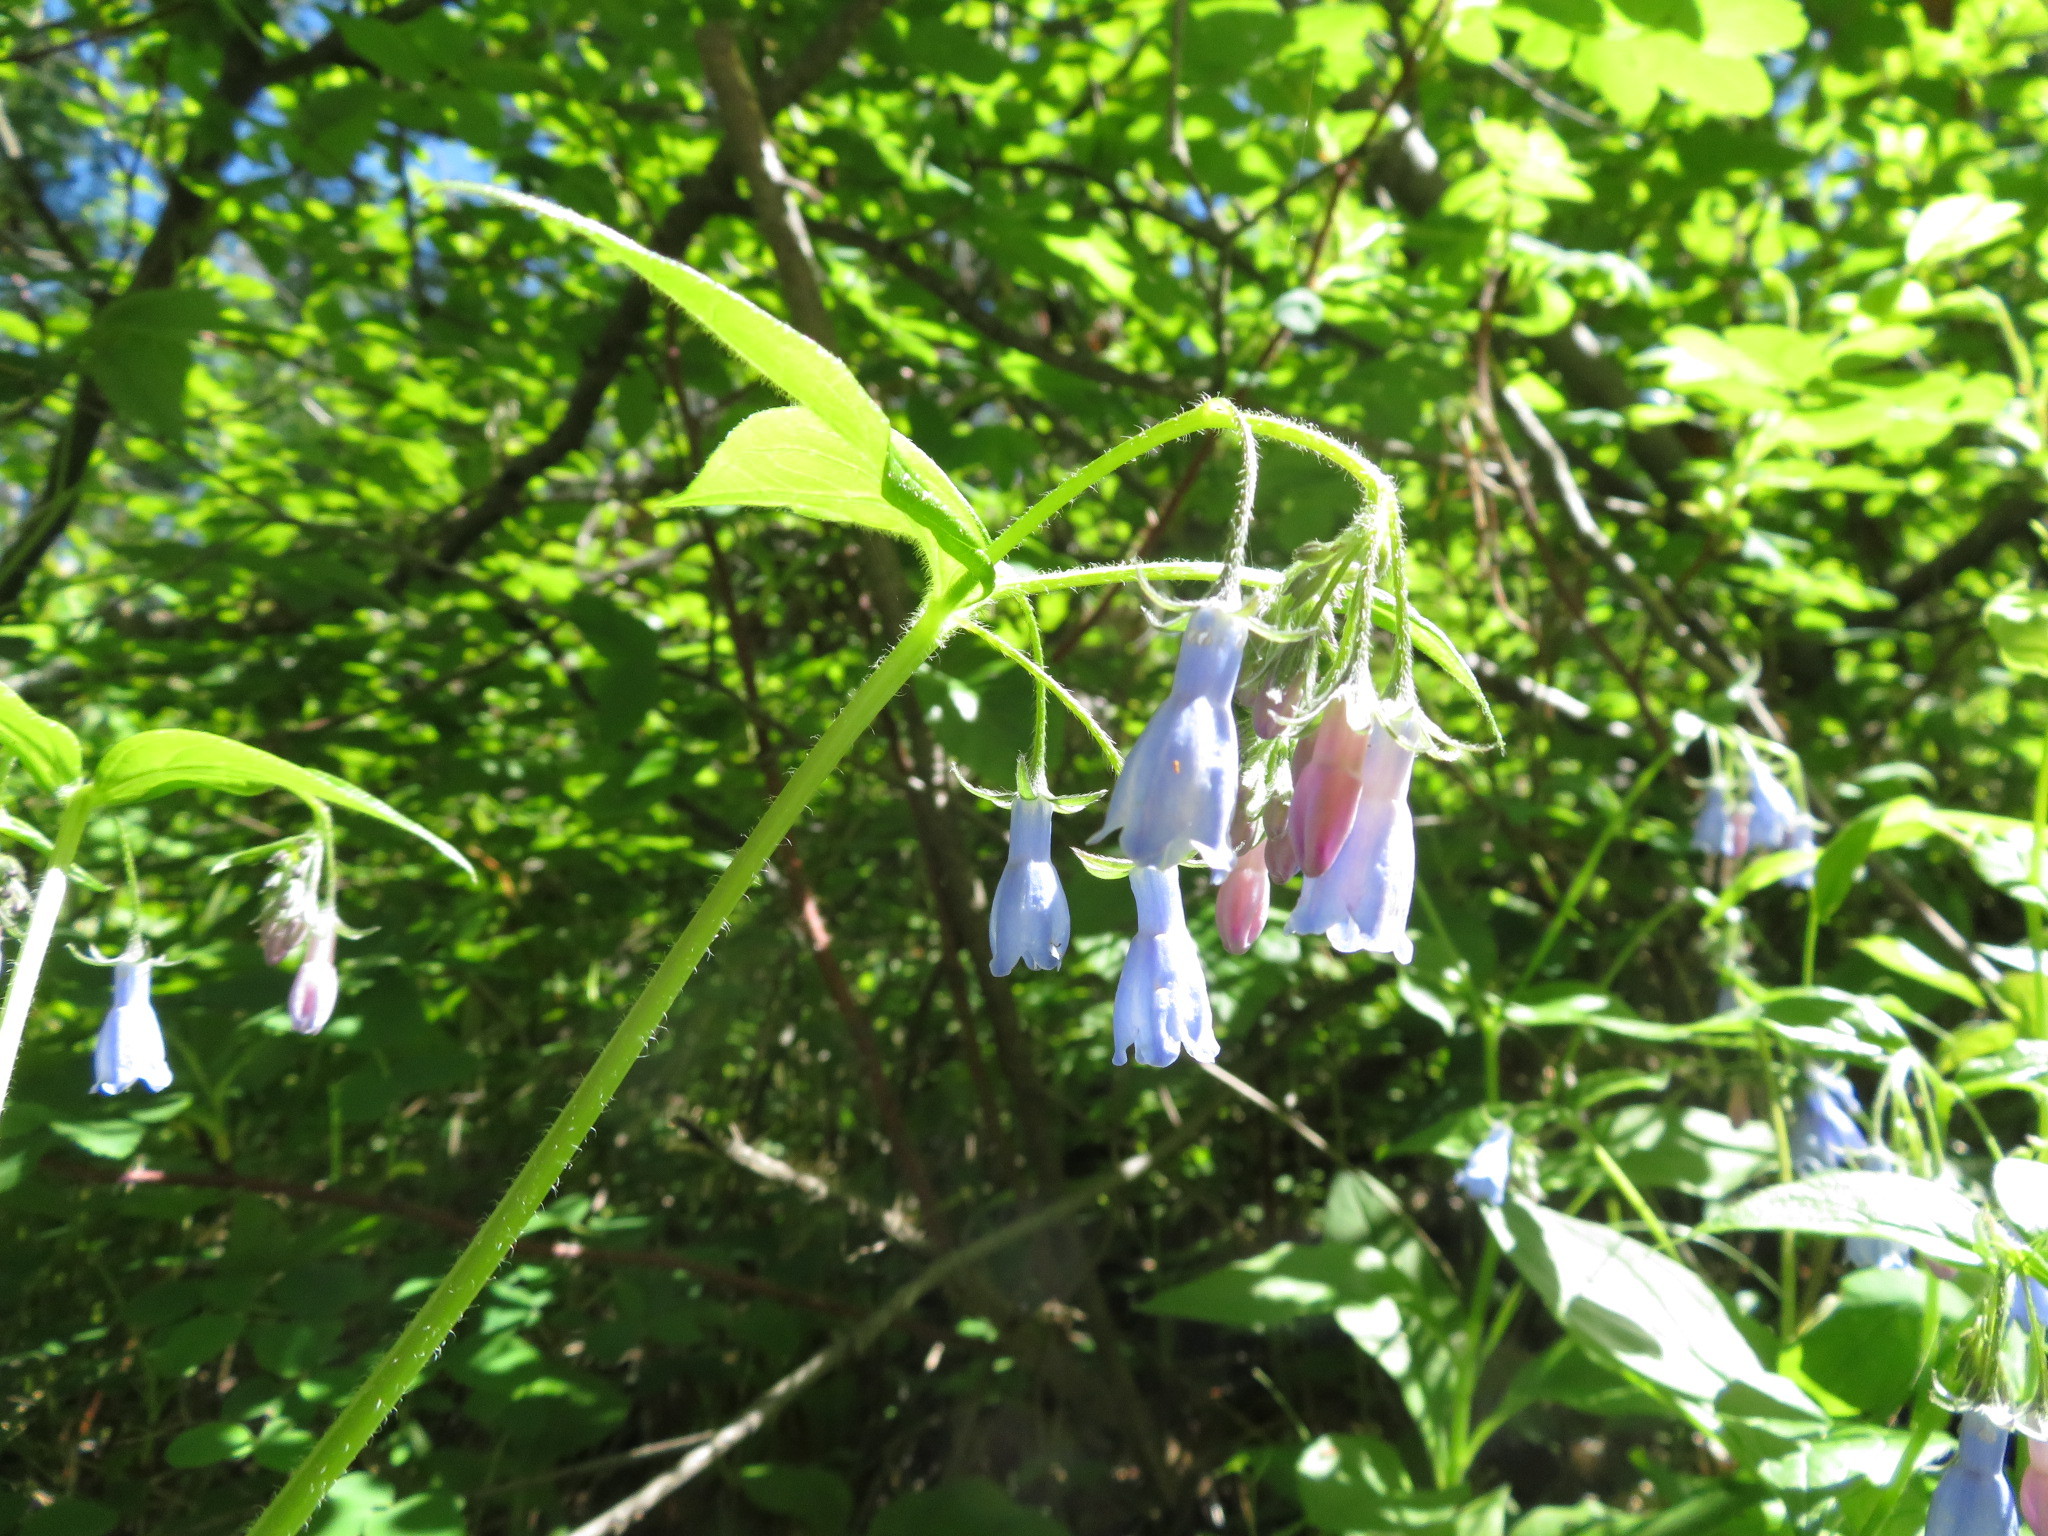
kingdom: Plantae
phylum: Tracheophyta
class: Magnoliopsida
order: Boraginales
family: Boraginaceae
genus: Mertensia
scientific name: Mertensia paniculata
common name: Panicled bluebells
